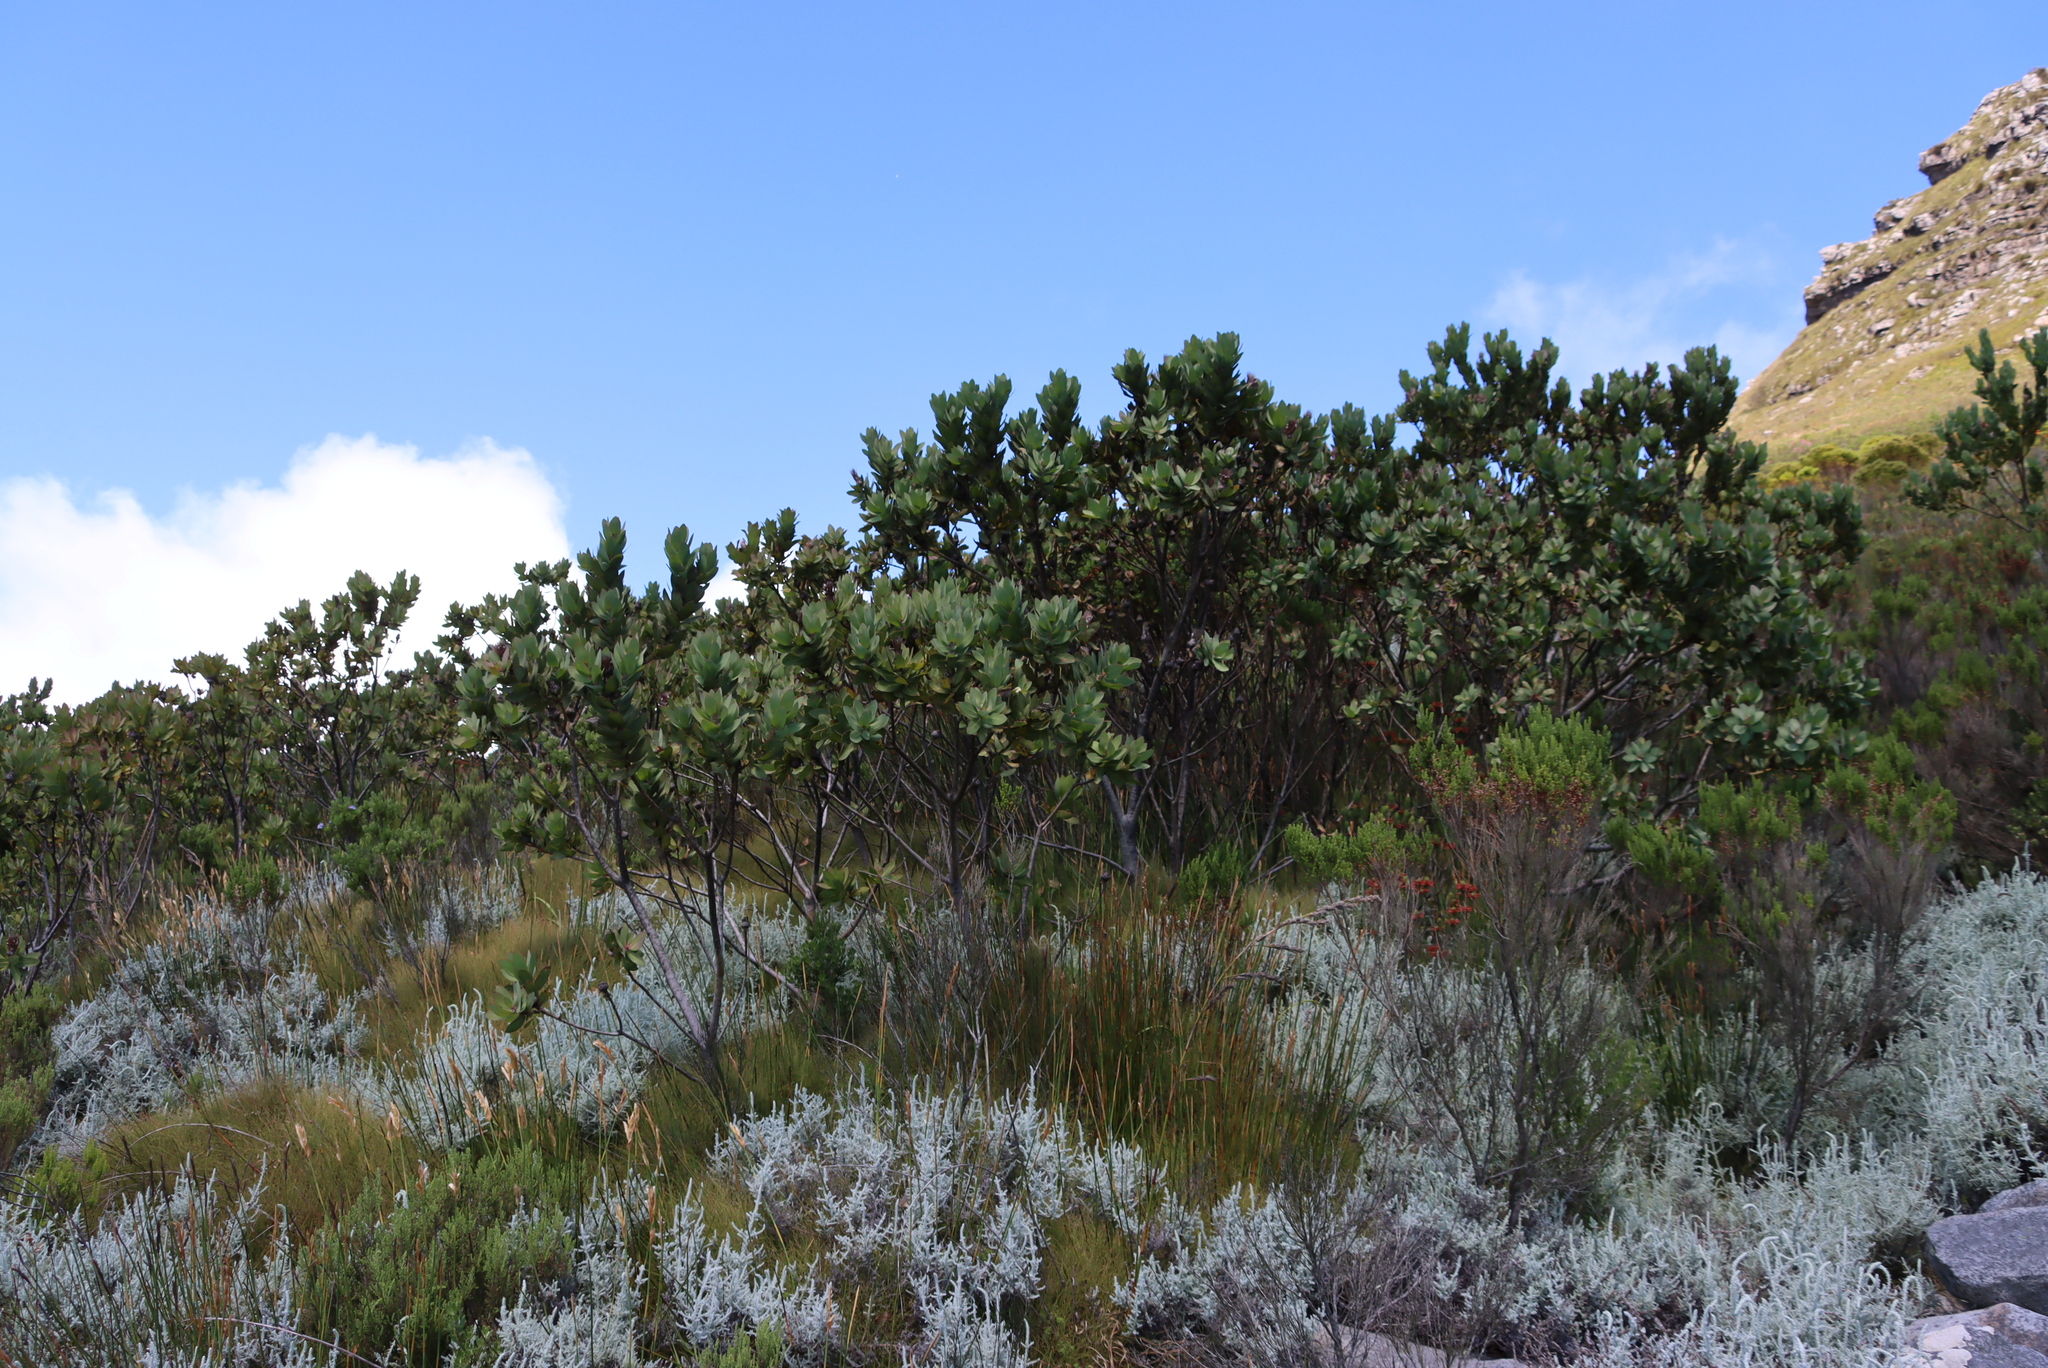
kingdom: Plantae
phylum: Tracheophyta
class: Magnoliopsida
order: Proteales
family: Proteaceae
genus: Protea
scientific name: Protea lacticolor
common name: Hottentot sugarbush
